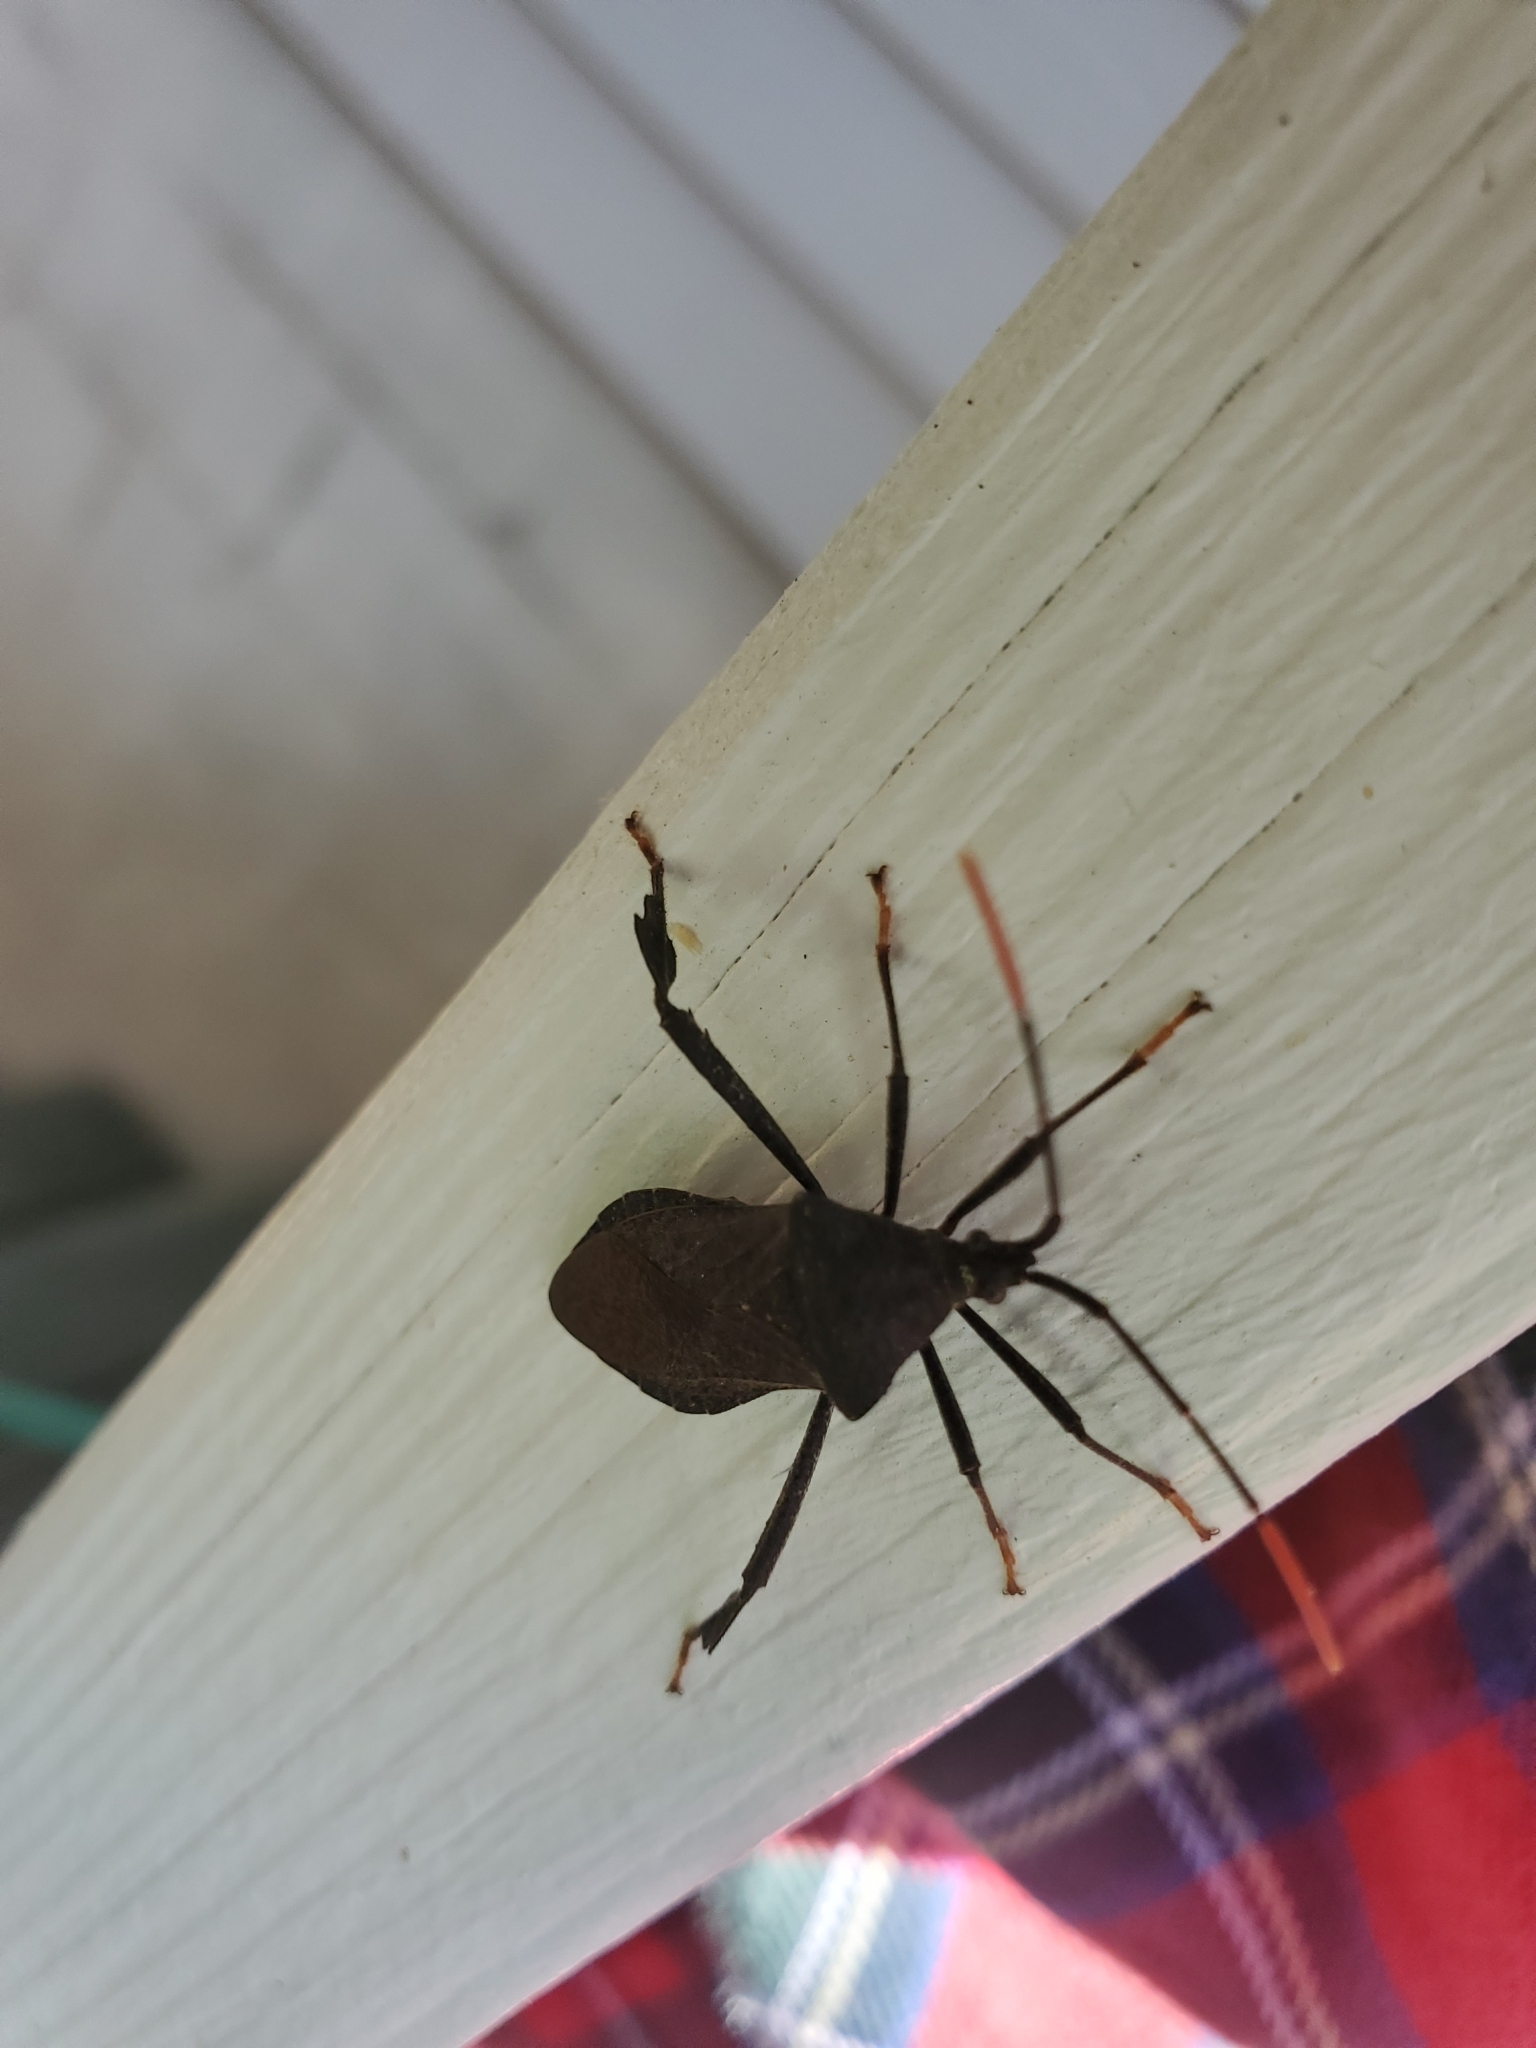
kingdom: Animalia
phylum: Arthropoda
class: Insecta
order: Hemiptera
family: Coreidae
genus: Acanthocephala
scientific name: Acanthocephala terminalis
